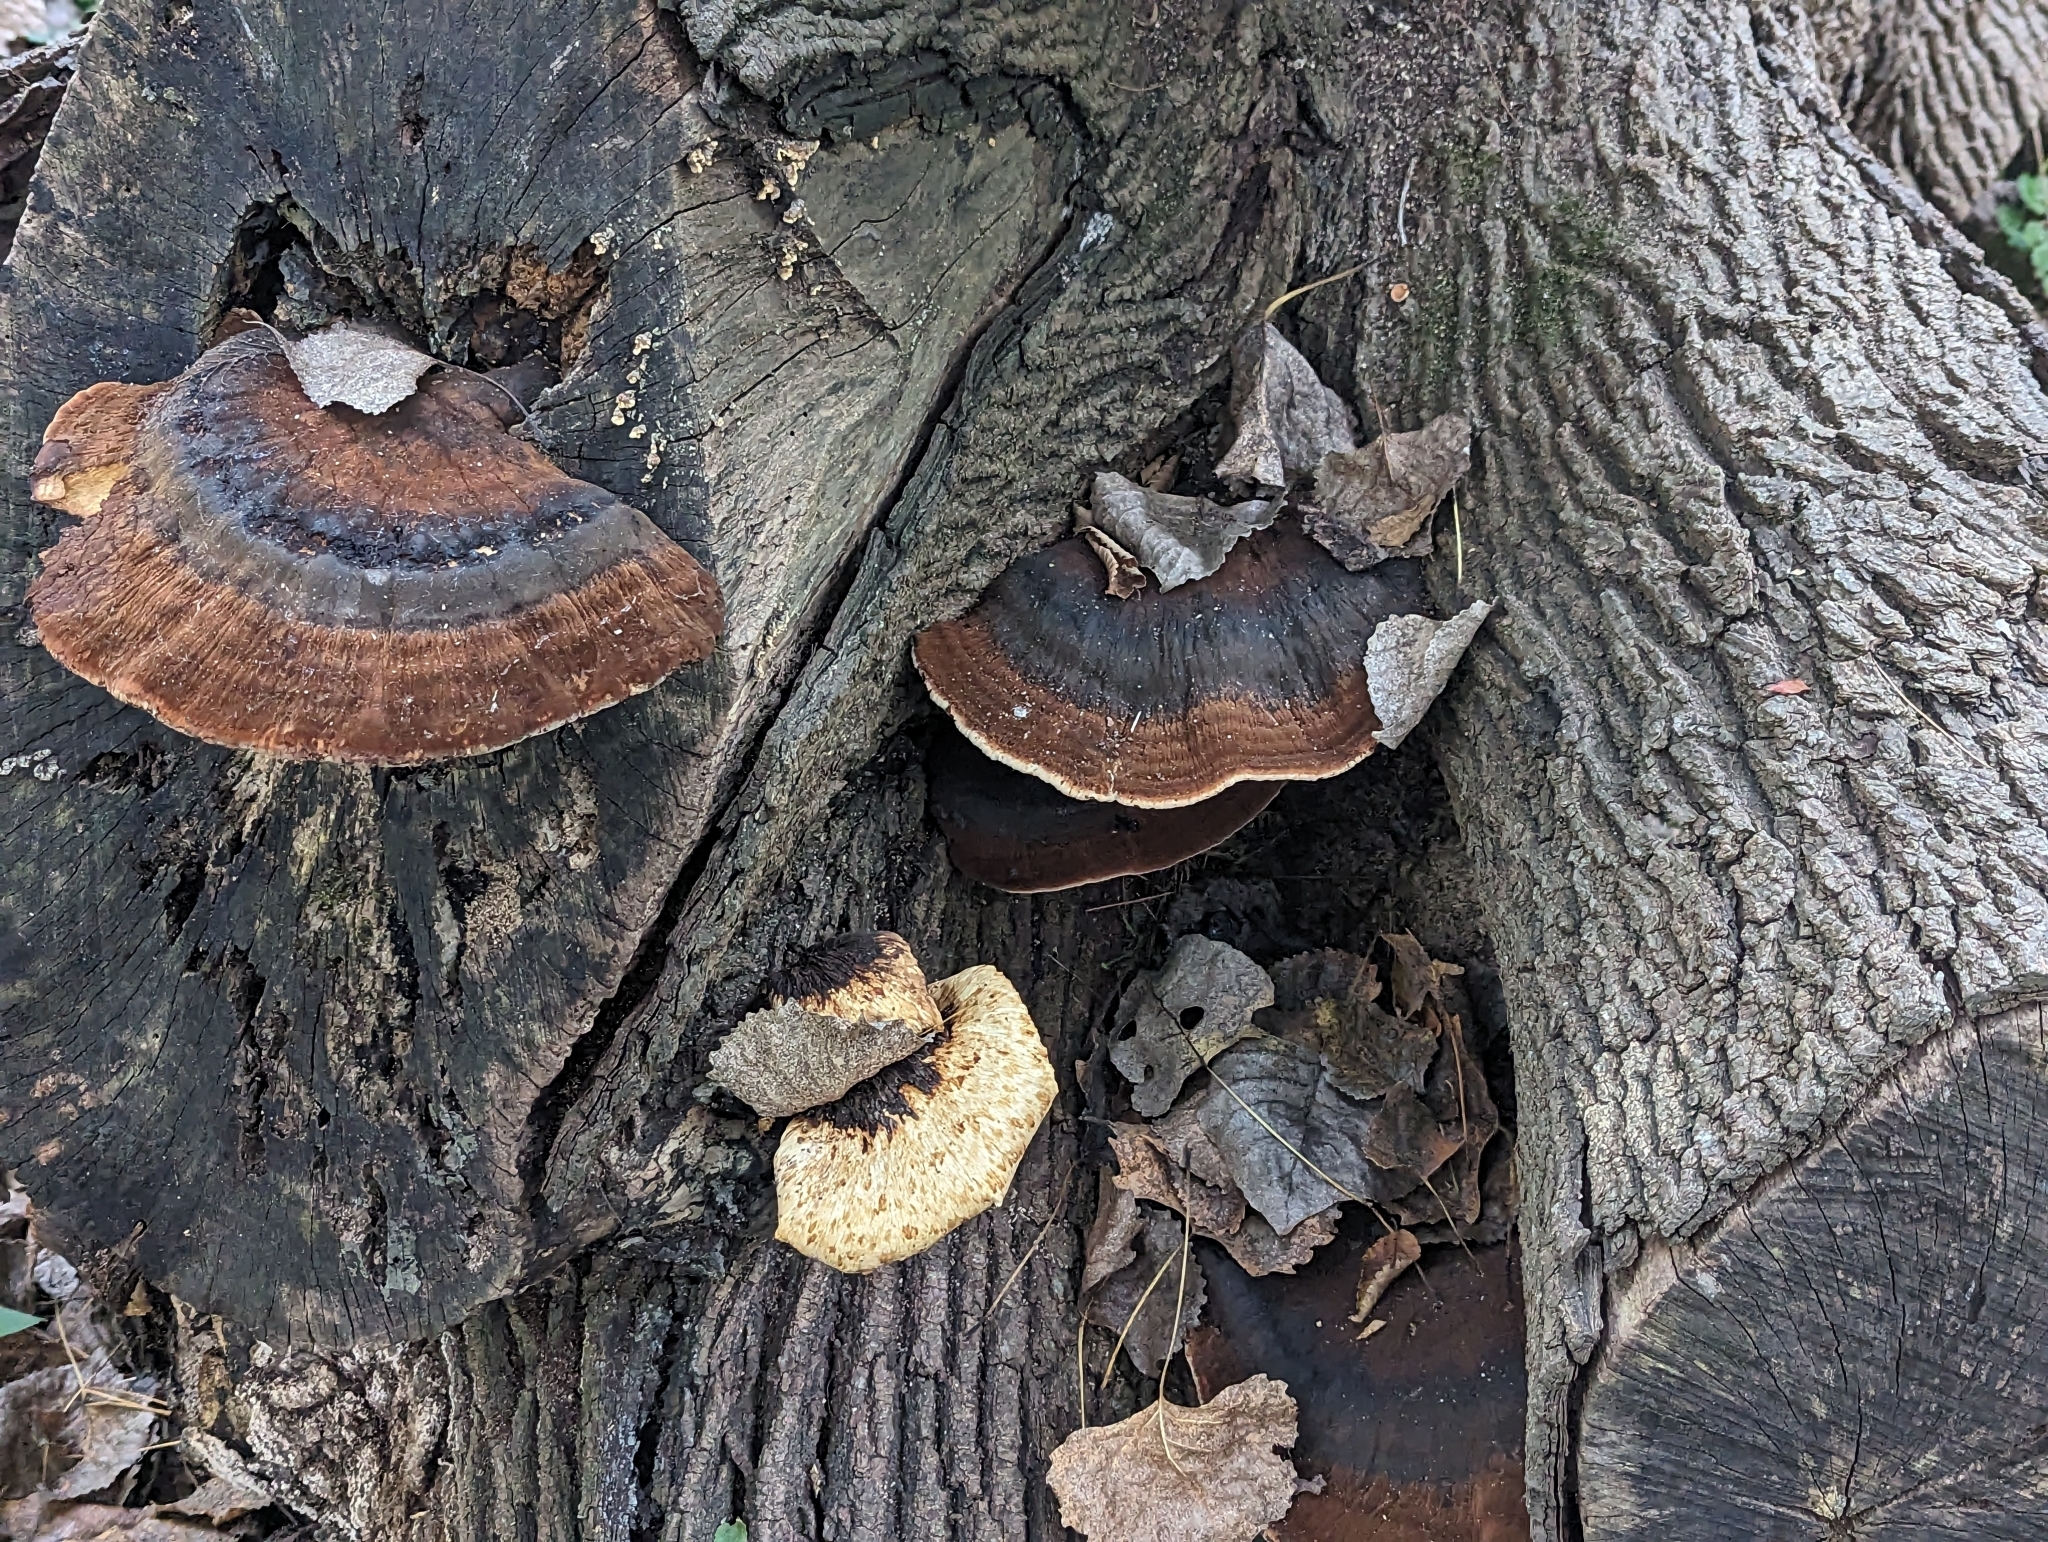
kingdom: Fungi
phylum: Basidiomycota
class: Agaricomycetes
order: Polyporales
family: Ischnodermataceae
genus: Ischnoderma
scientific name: Ischnoderma resinosum
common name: Resinous polypore
